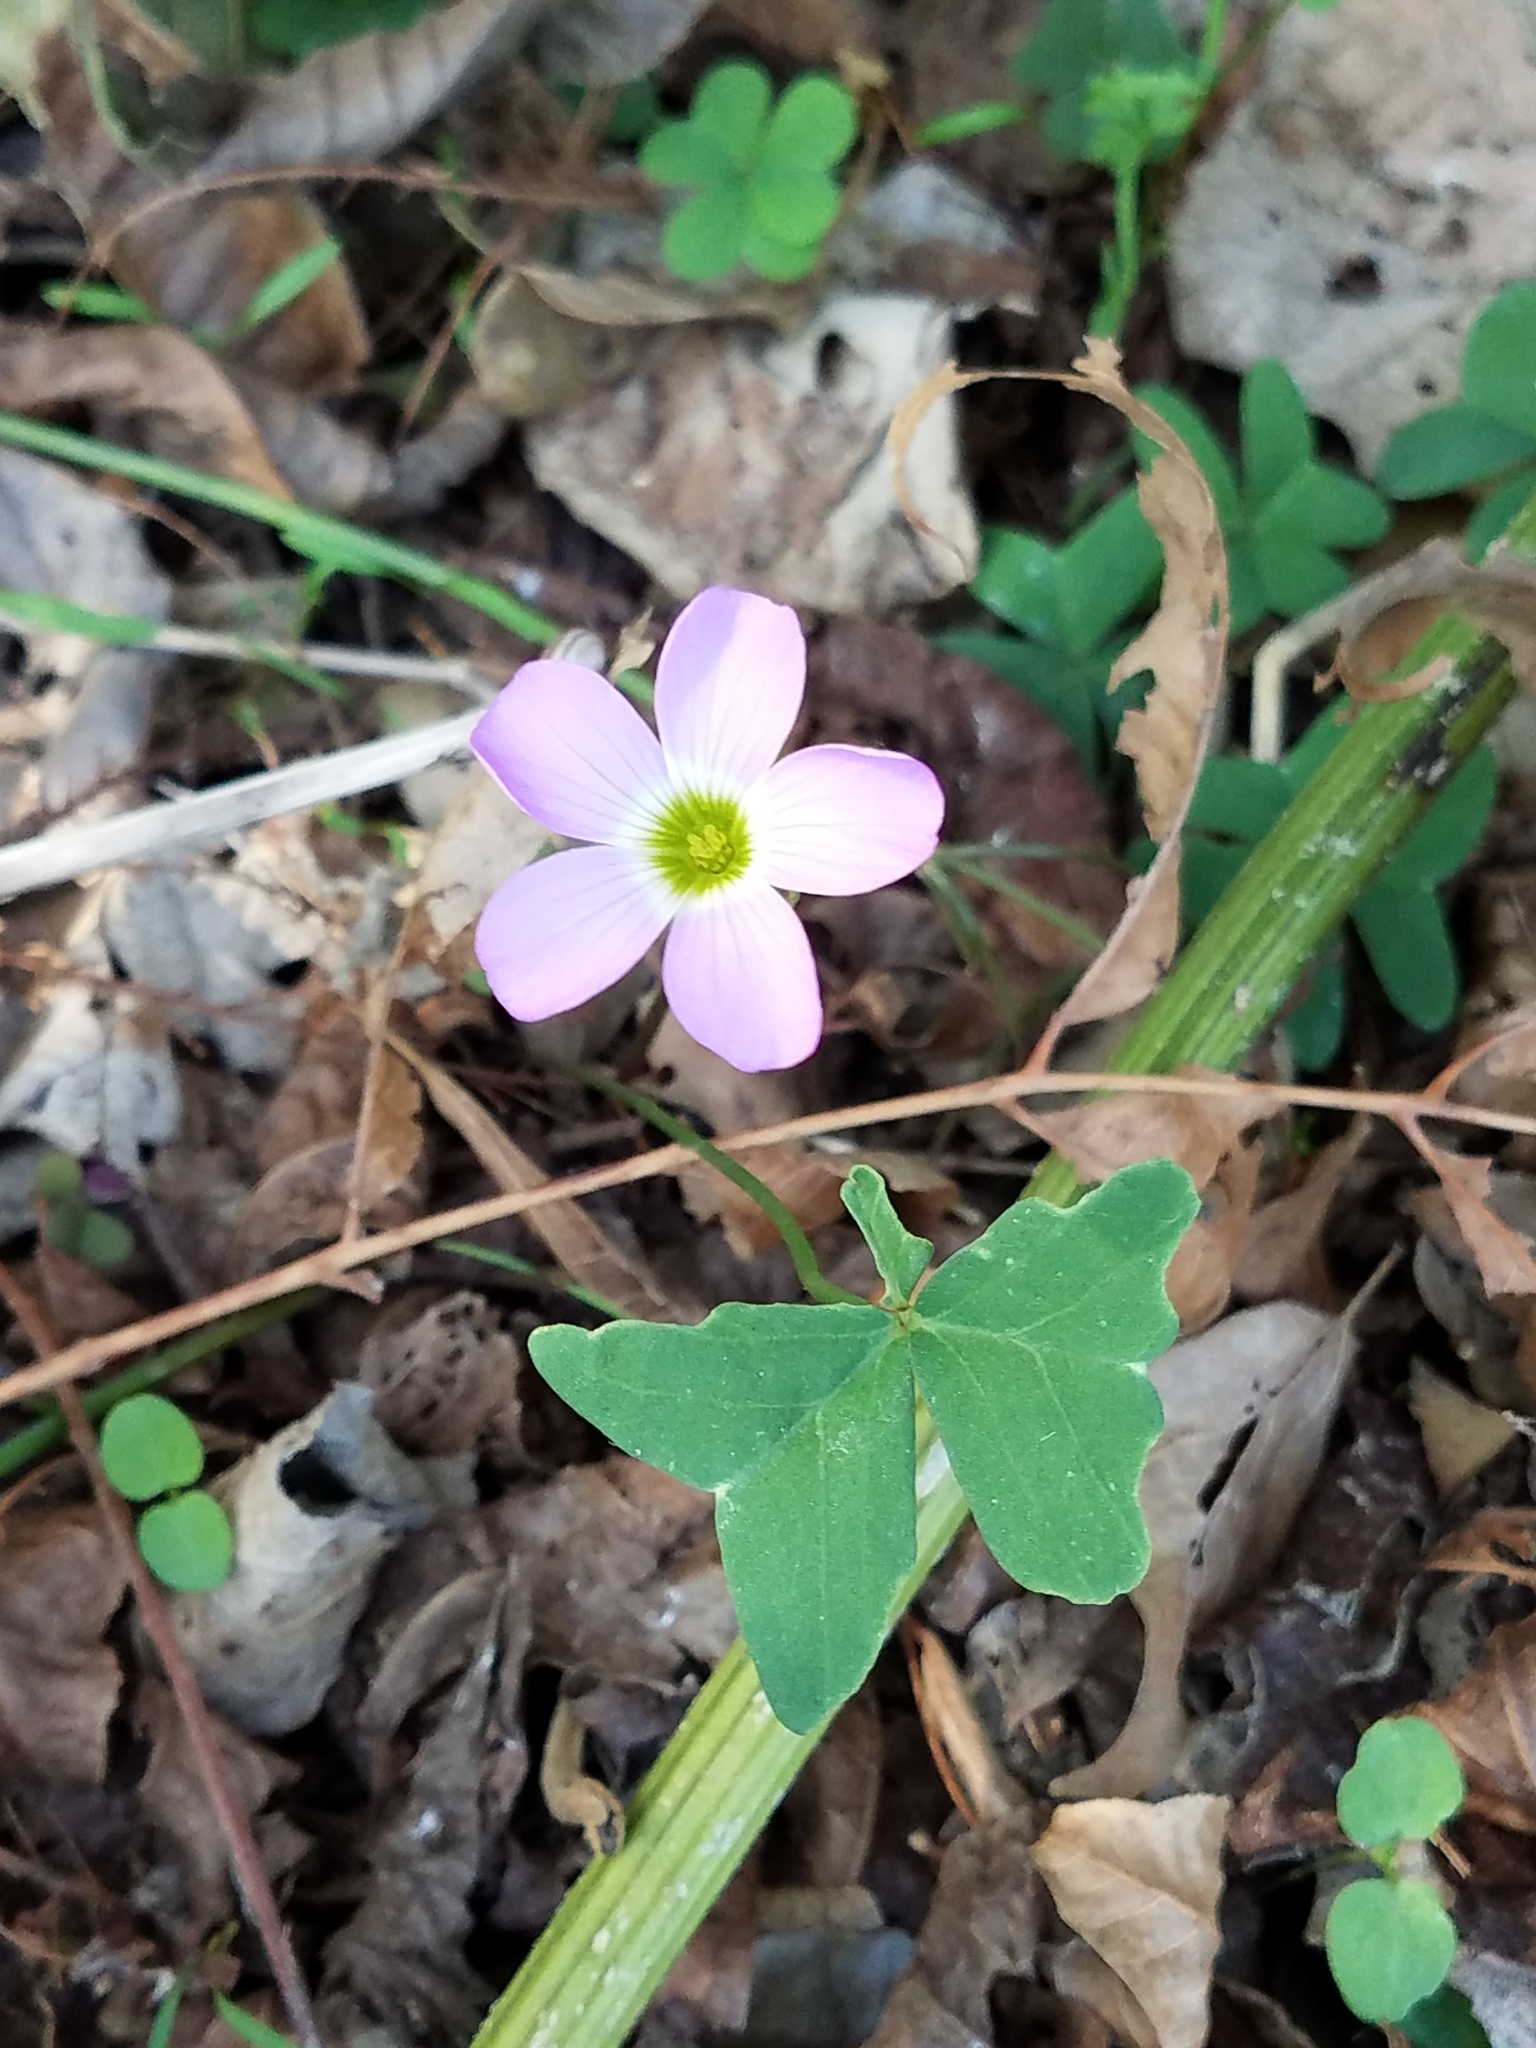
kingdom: Plantae
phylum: Tracheophyta
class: Magnoliopsida
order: Oxalidales
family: Oxalidaceae
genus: Oxalis
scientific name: Oxalis drummondii
